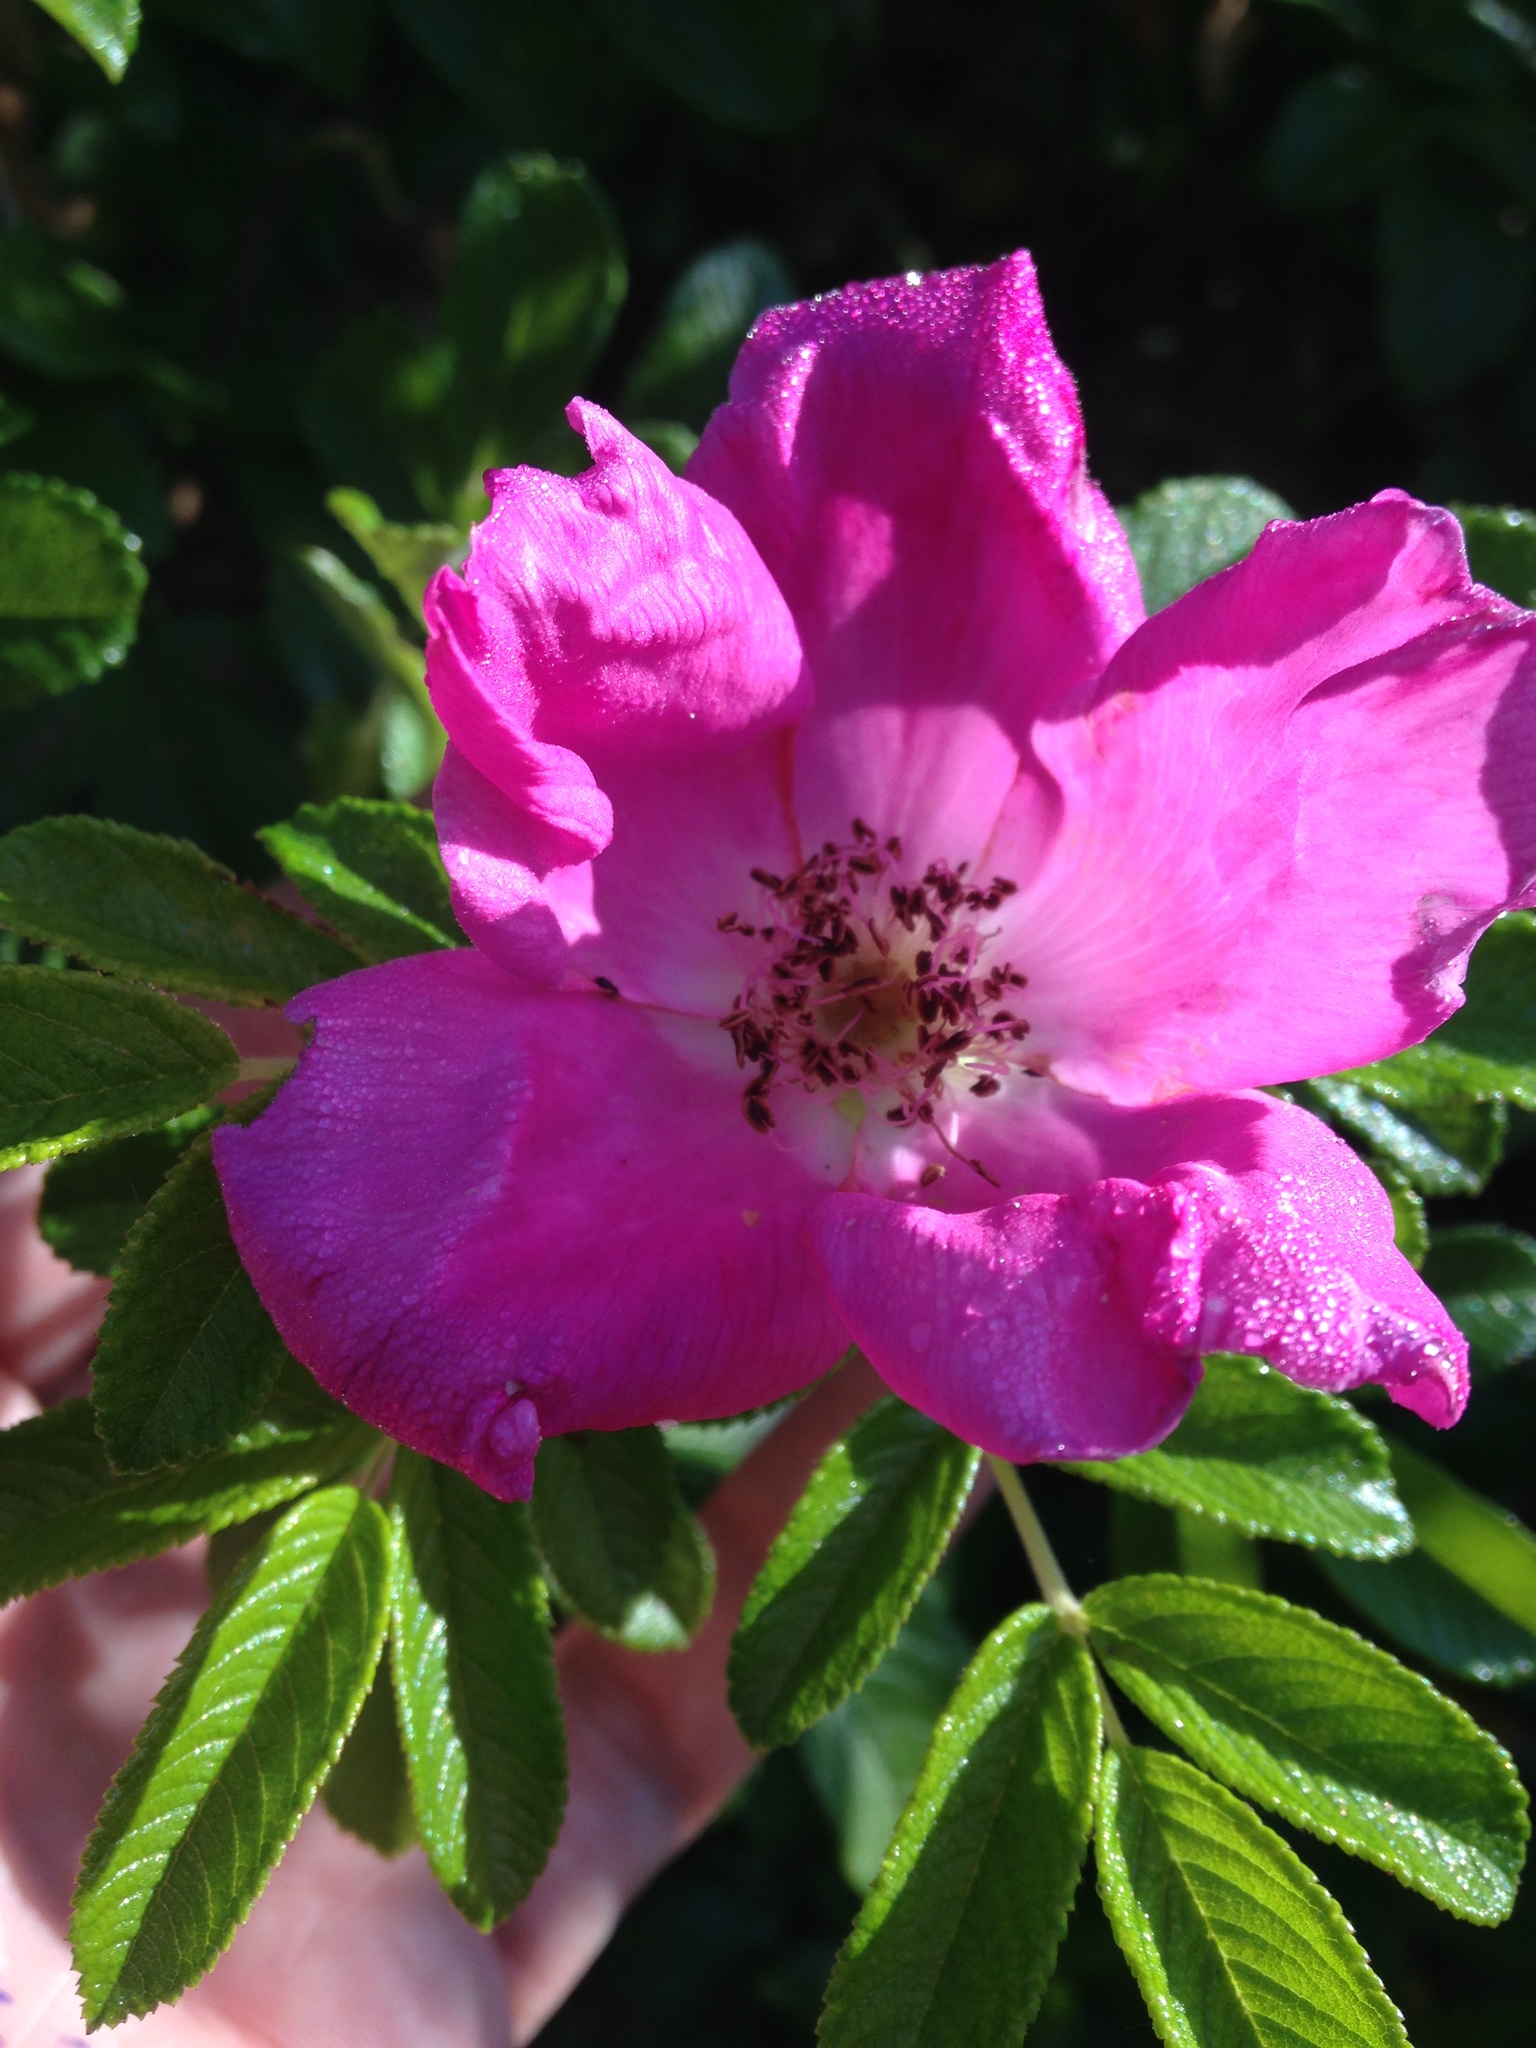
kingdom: Plantae
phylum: Tracheophyta
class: Magnoliopsida
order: Rosales
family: Rosaceae
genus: Rosa
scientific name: Rosa rugosa
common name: Japanese rose
